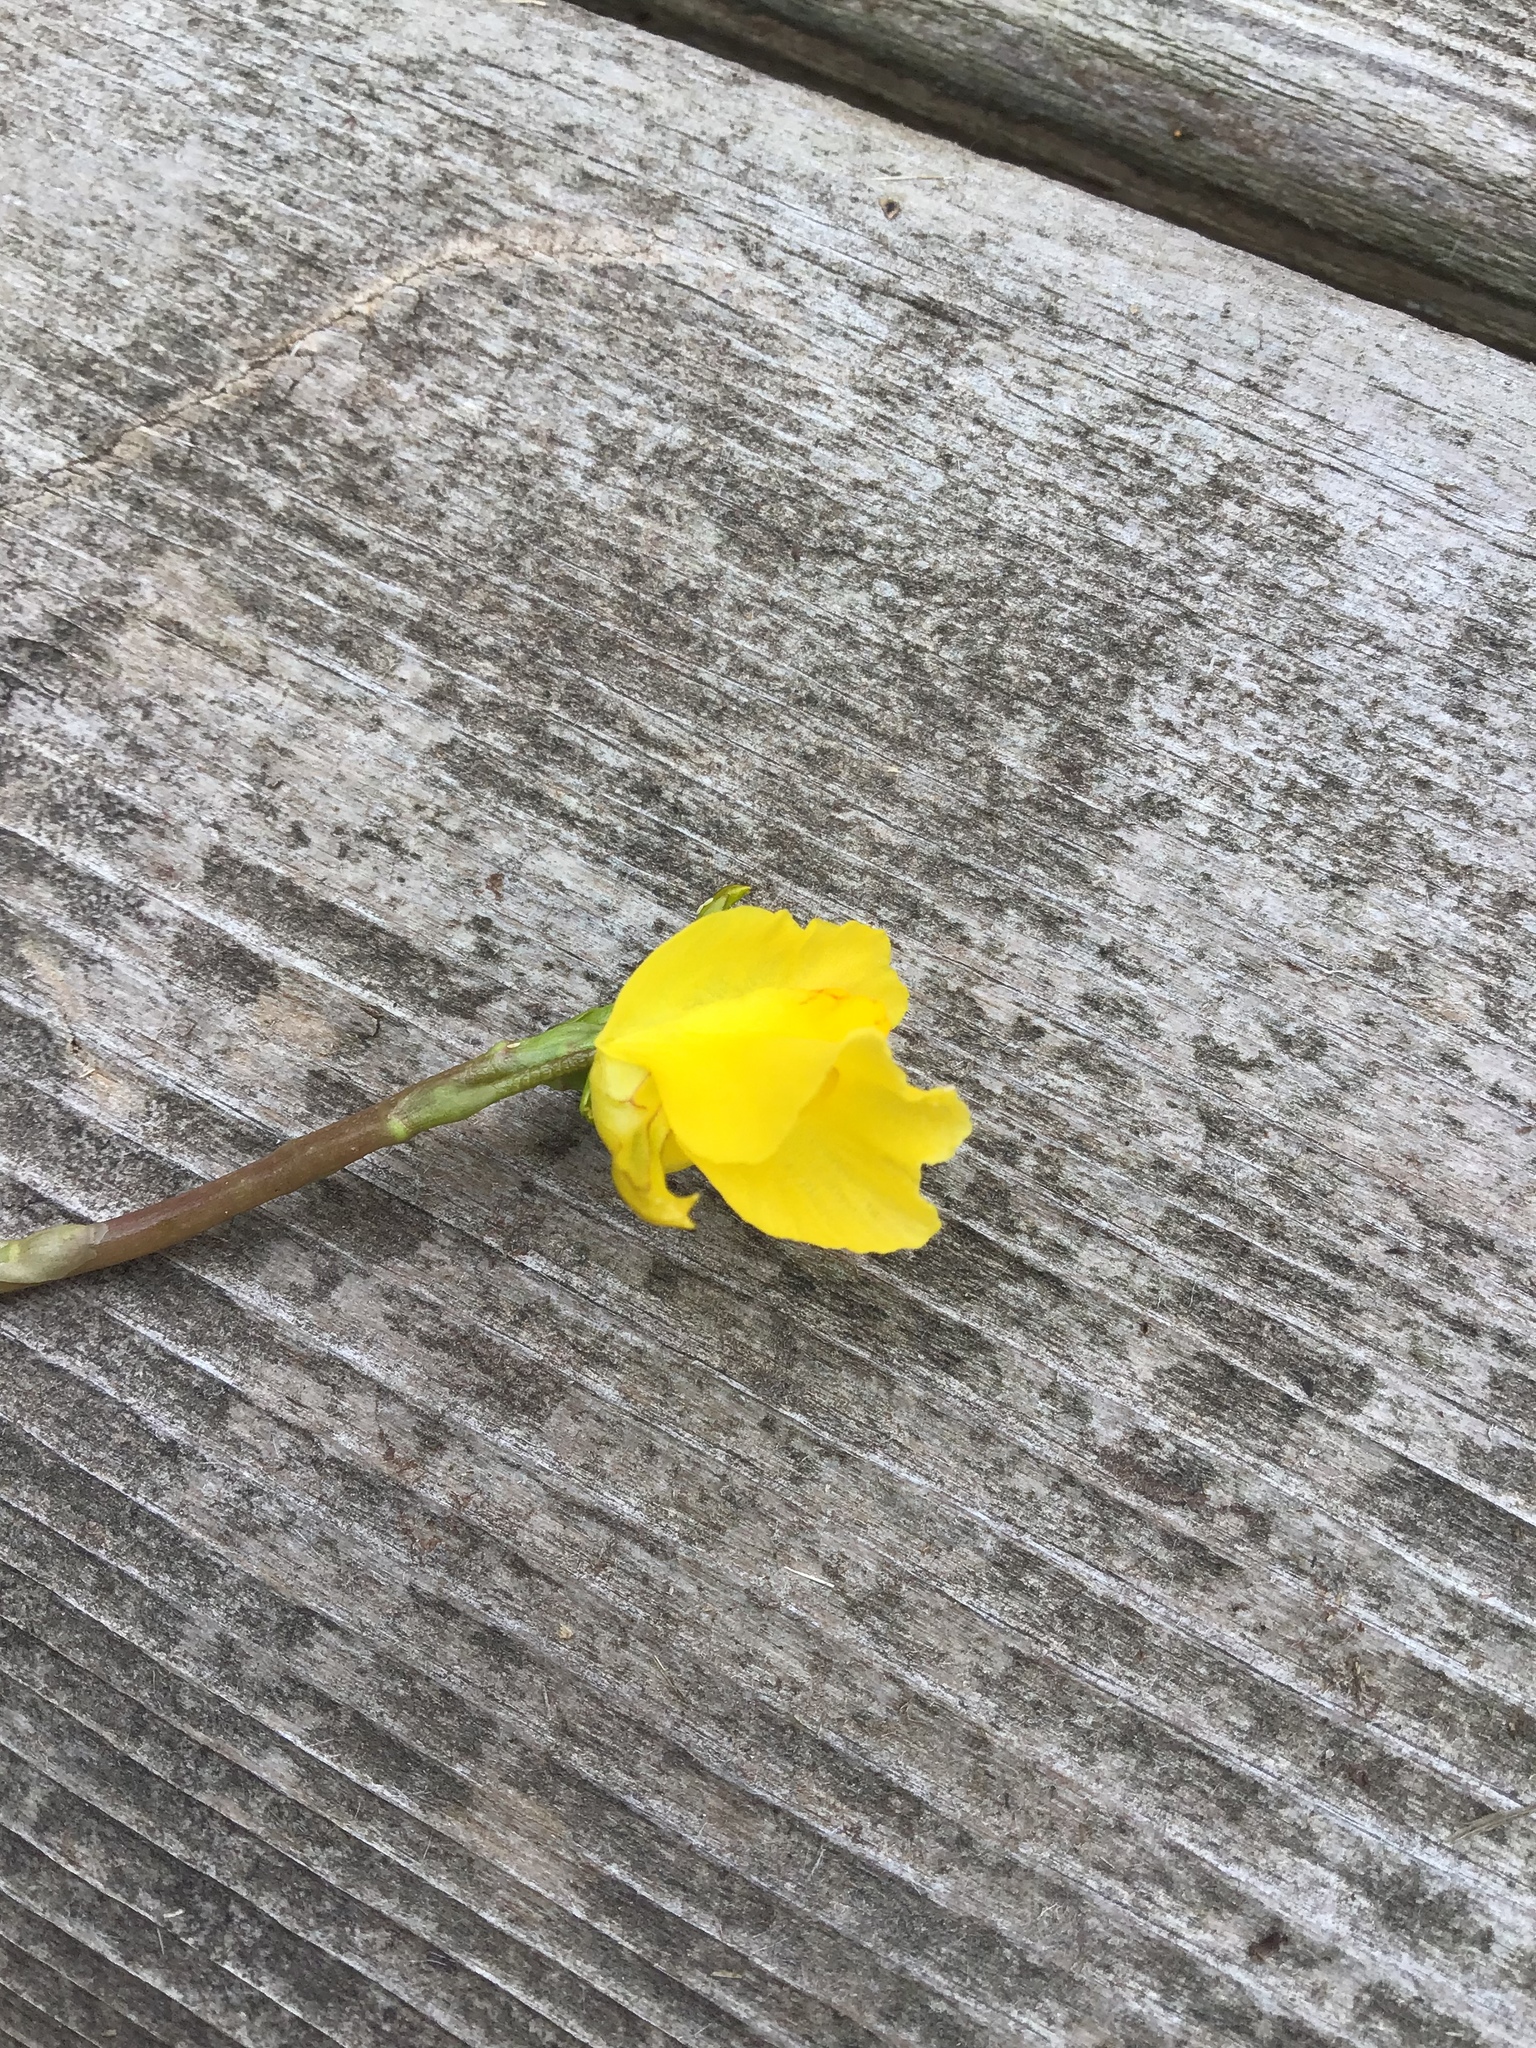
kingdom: Plantae
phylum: Tracheophyta
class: Magnoliopsida
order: Lamiales
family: Lentibulariaceae
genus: Utricularia
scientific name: Utricularia macrorhiza
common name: Common bladderwort
